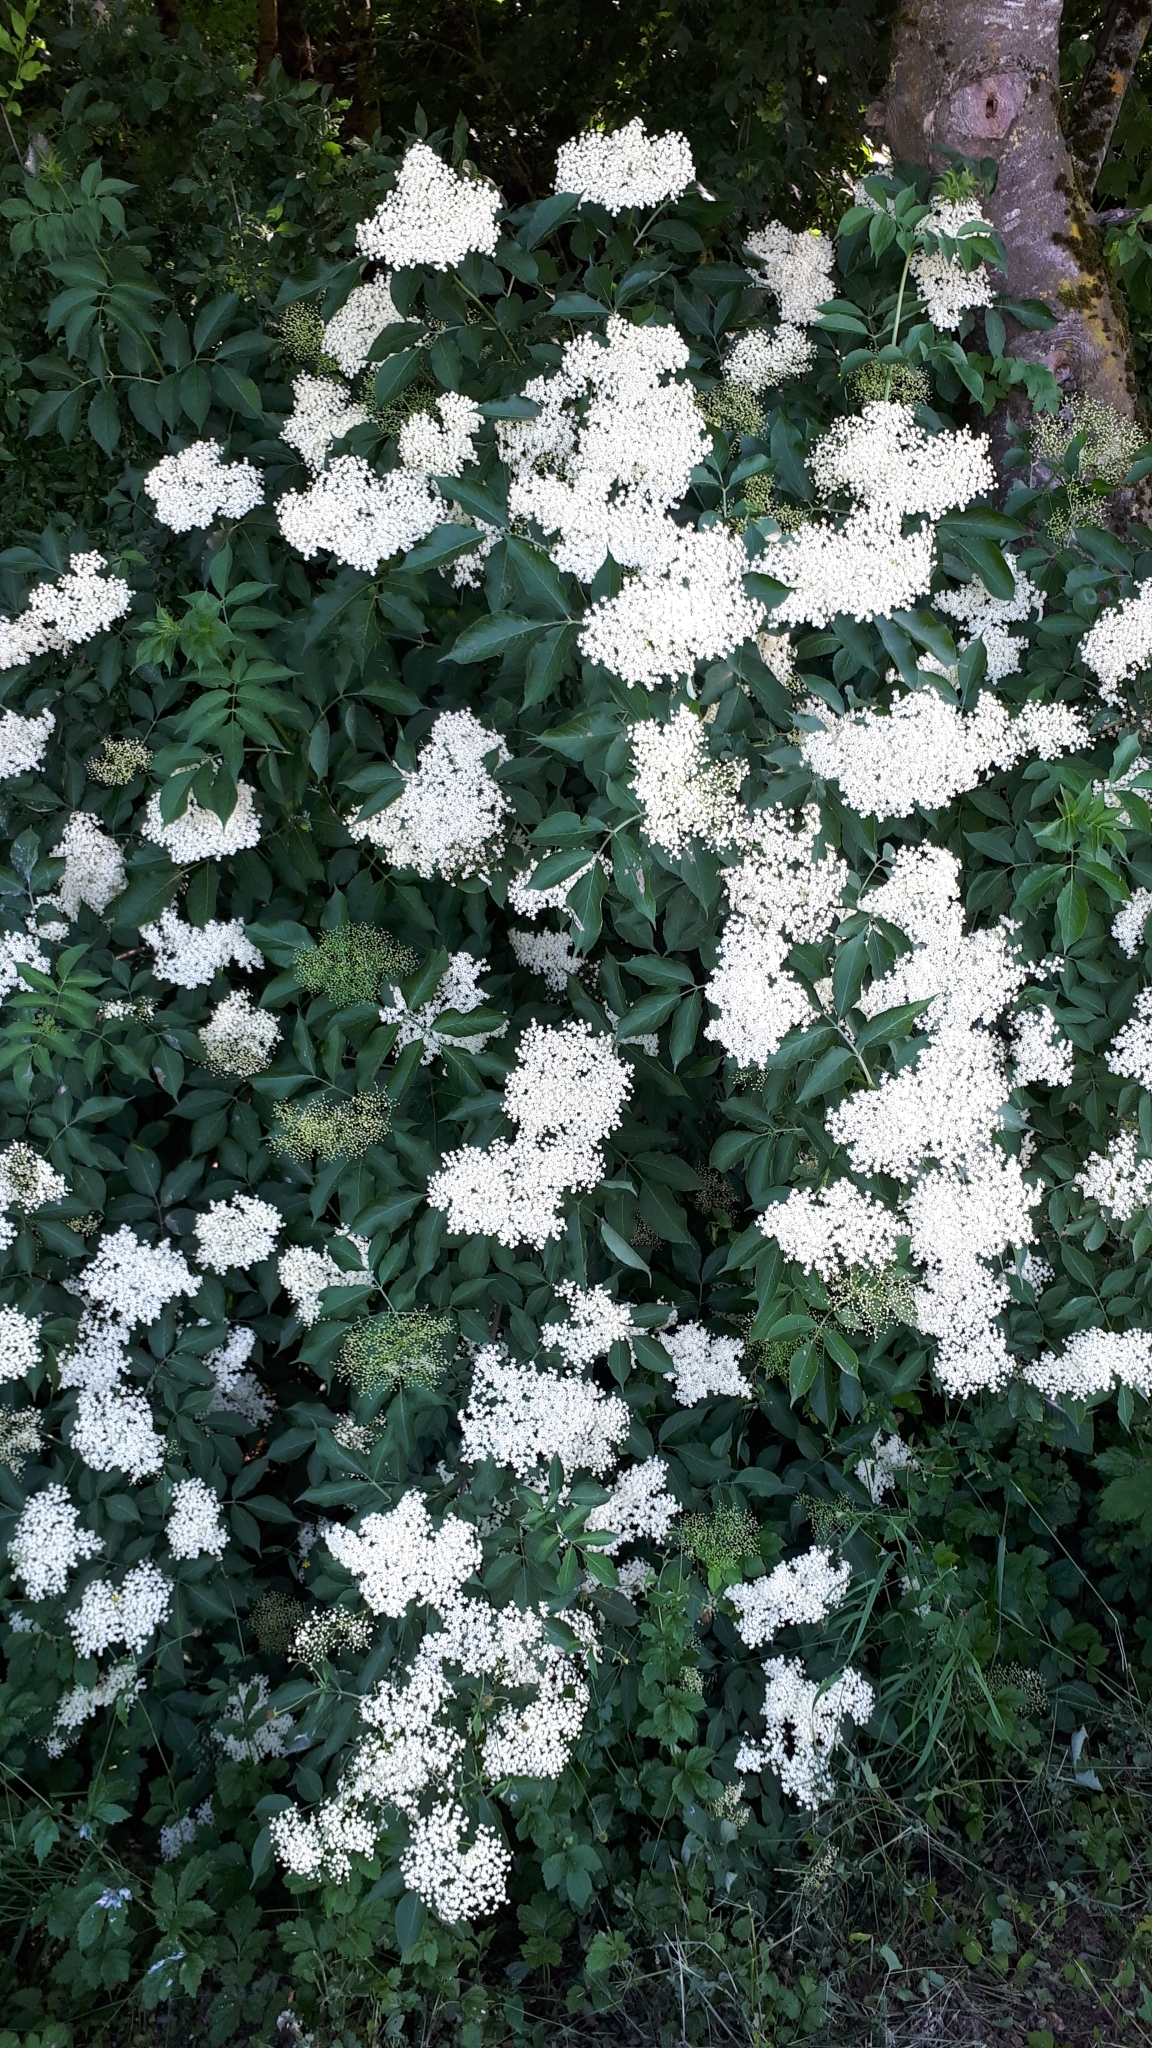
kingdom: Plantae
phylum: Tracheophyta
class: Magnoliopsida
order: Dipsacales
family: Viburnaceae
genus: Sambucus
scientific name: Sambucus nigra
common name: Elder
